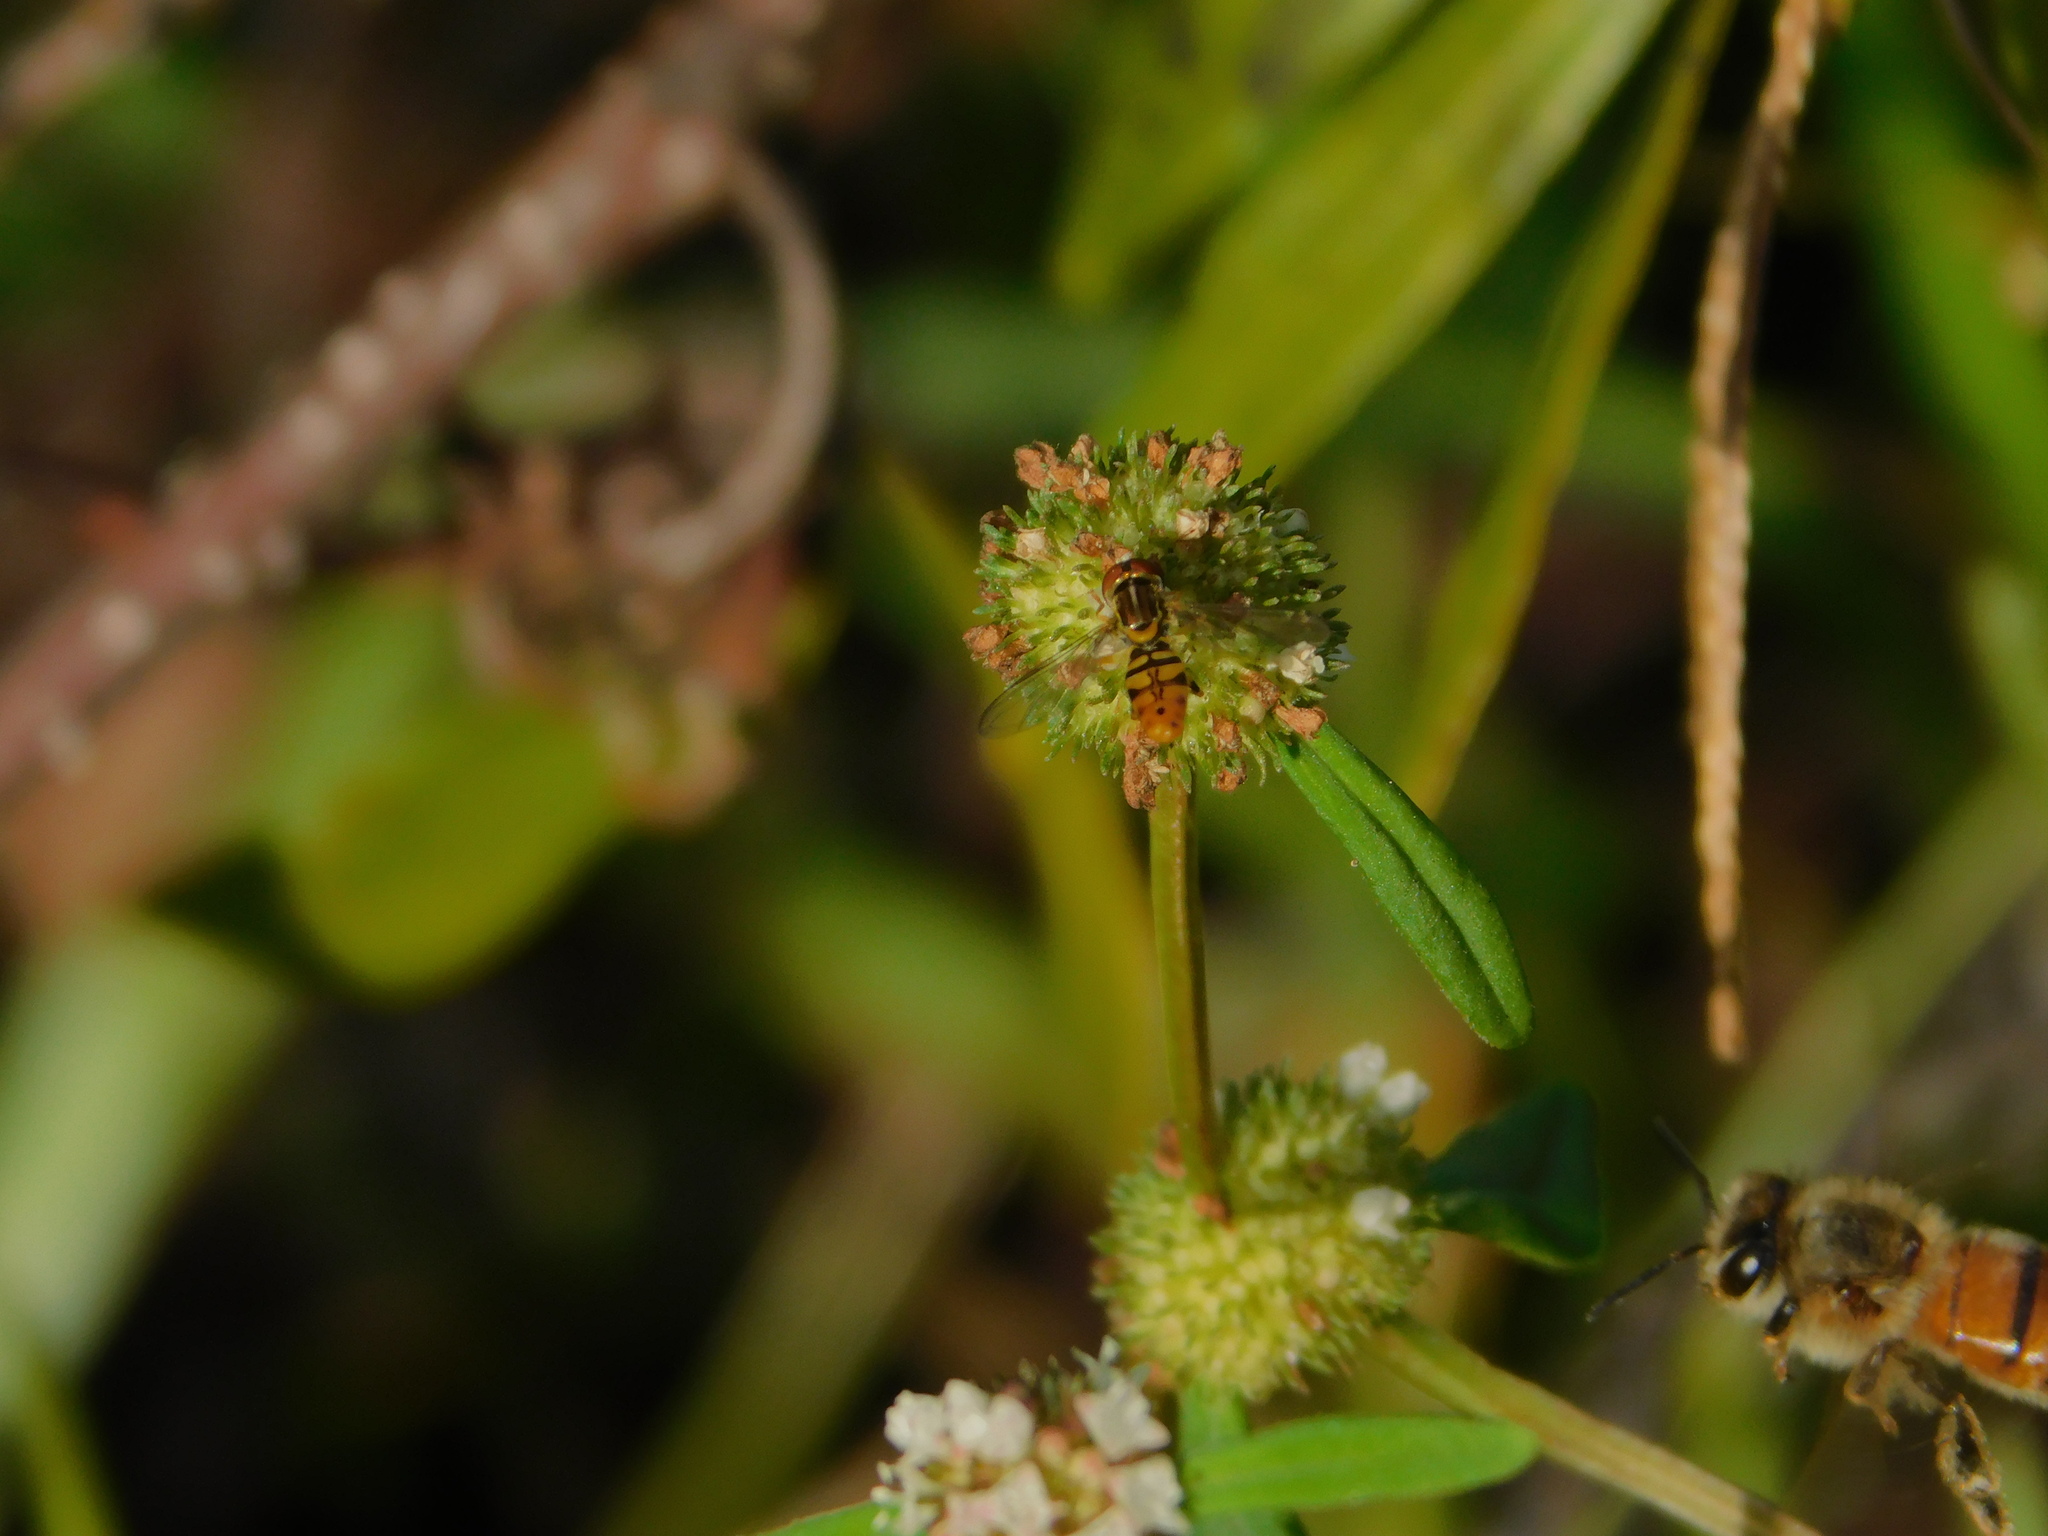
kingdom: Animalia
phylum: Arthropoda
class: Insecta
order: Diptera
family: Syrphidae
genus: Toxomerus
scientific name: Toxomerus floralis
